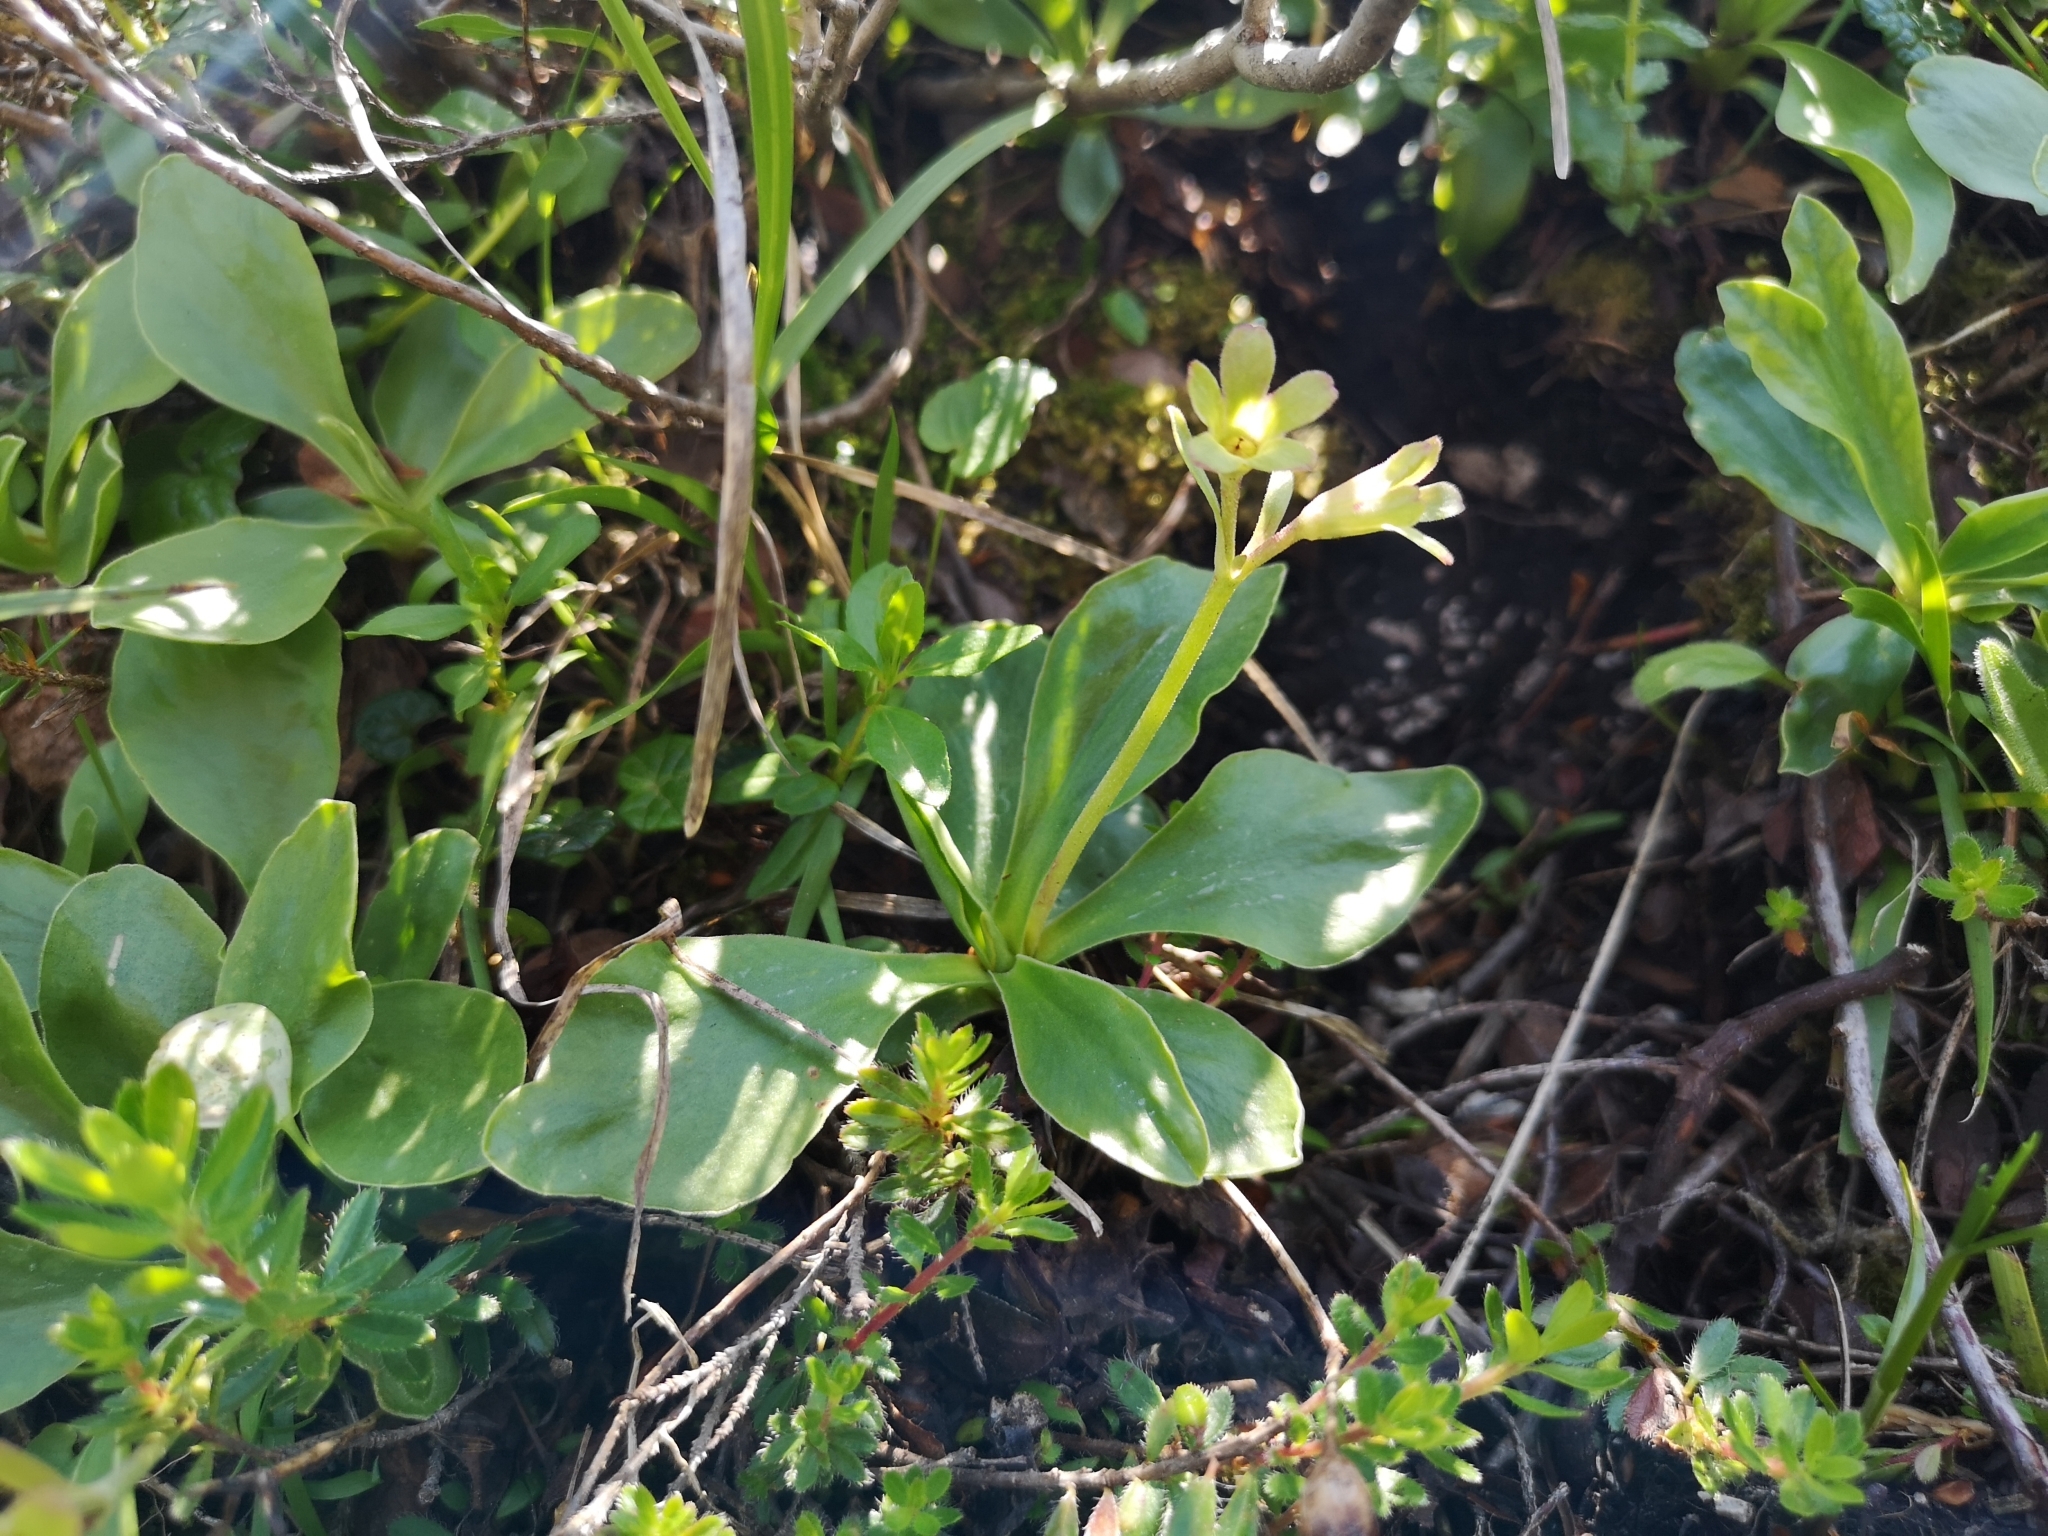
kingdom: Plantae
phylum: Tracheophyta
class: Magnoliopsida
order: Ericales
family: Primulaceae
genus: Primula
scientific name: Primula auricula
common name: Auricula
